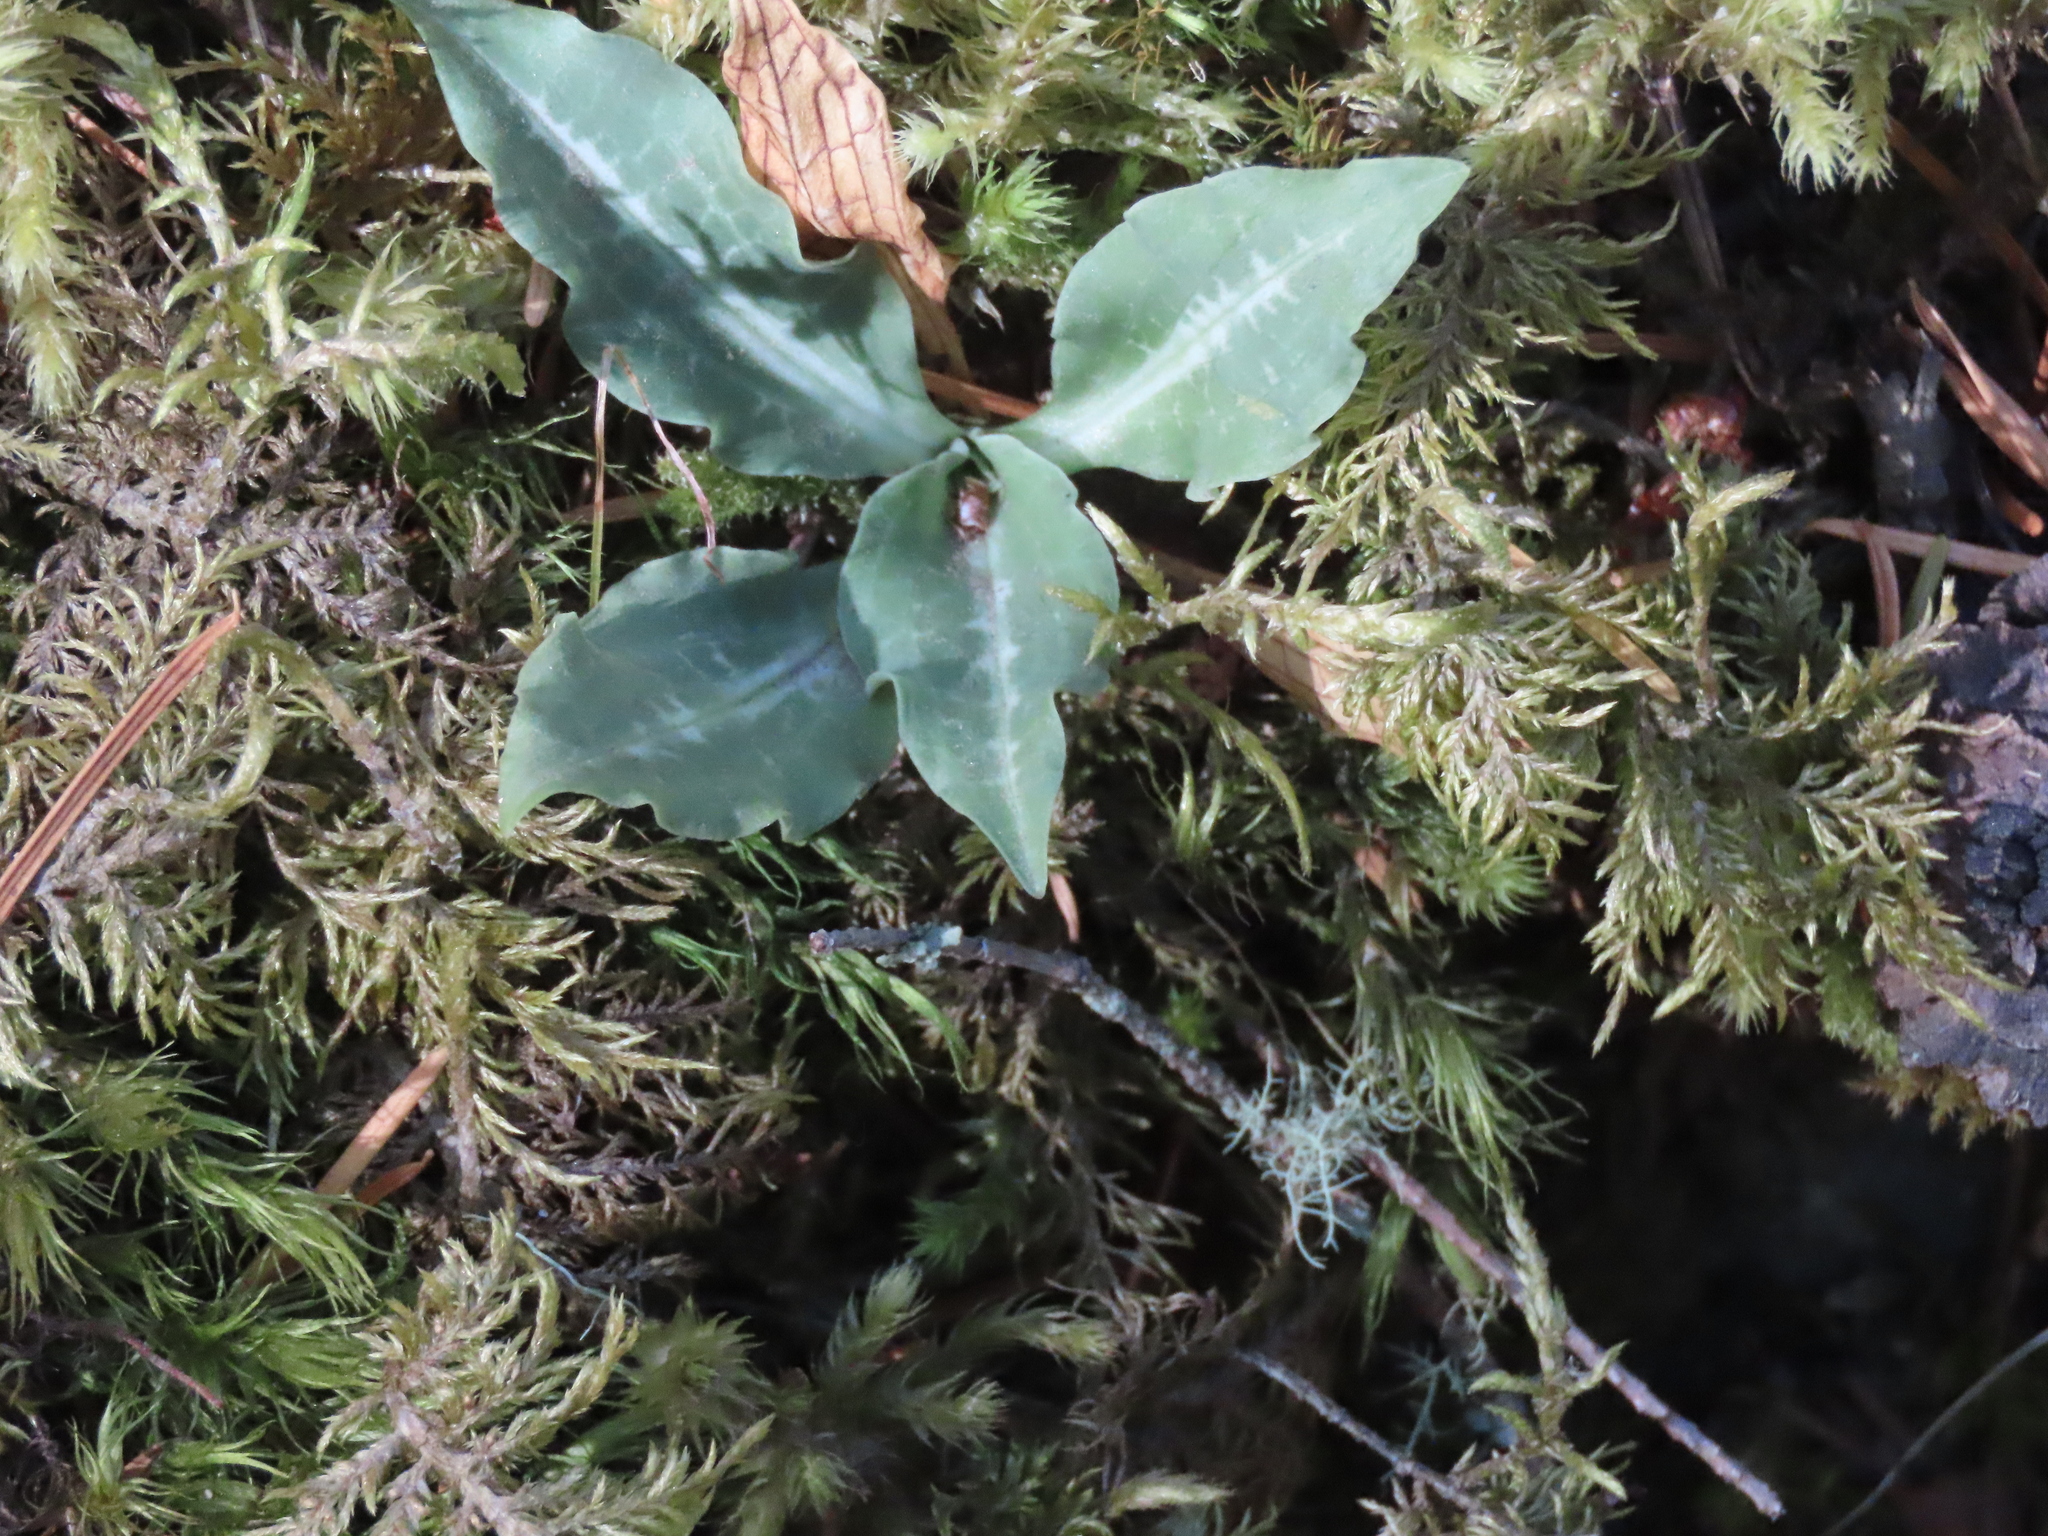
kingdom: Plantae
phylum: Tracheophyta
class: Liliopsida
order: Asparagales
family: Orchidaceae
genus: Goodyera
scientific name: Goodyera oblongifolia
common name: Giant rattlesnake-plantain
